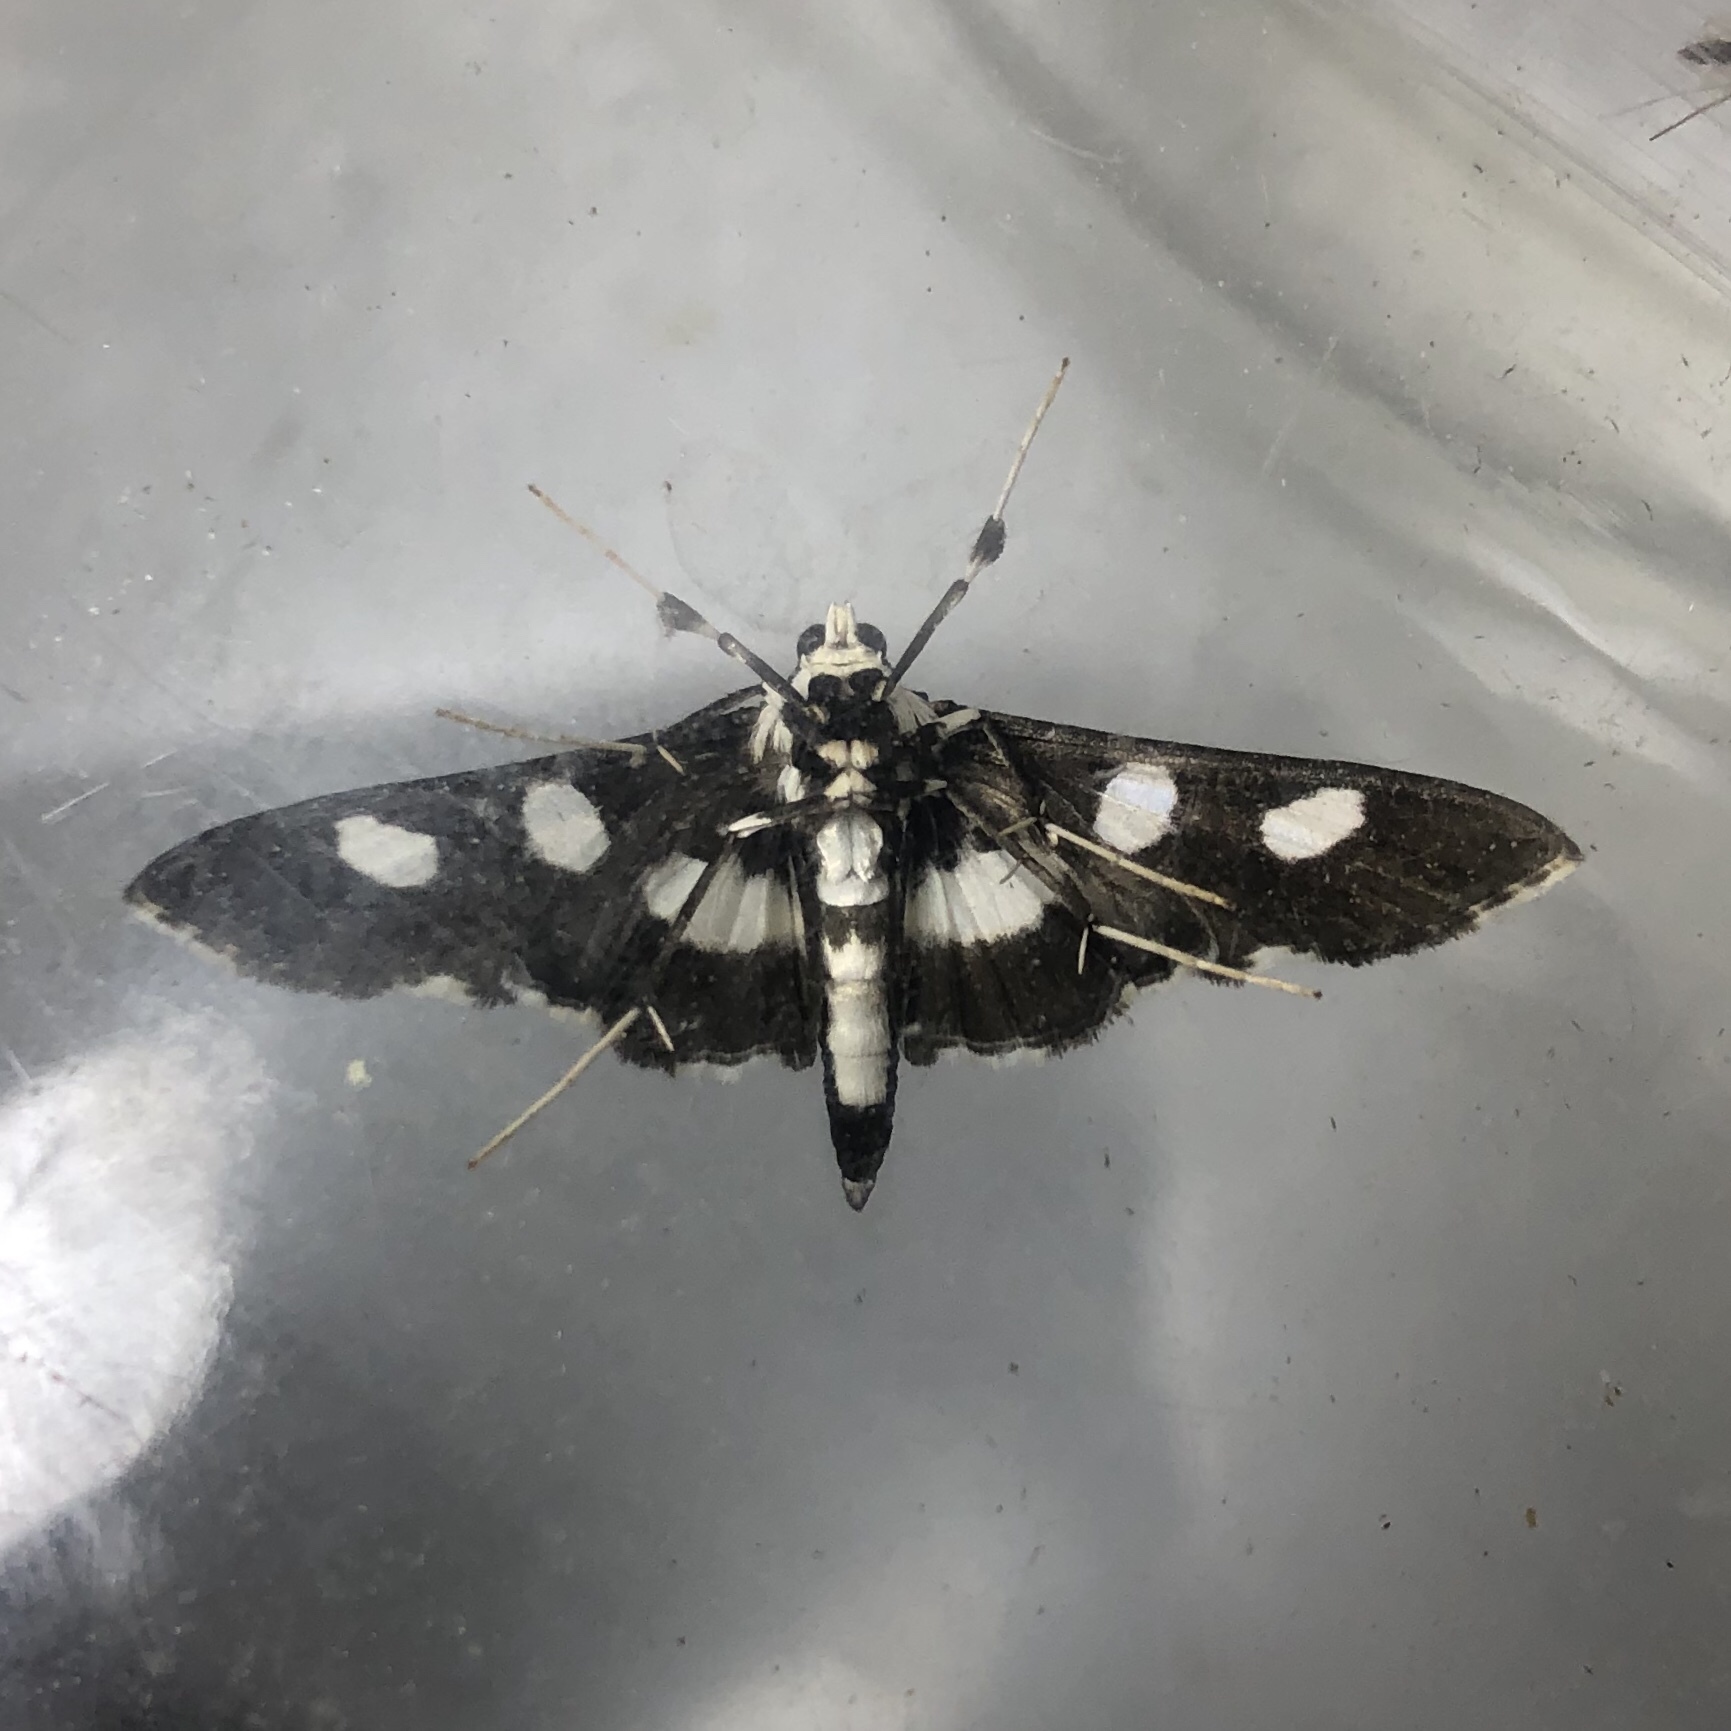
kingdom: Animalia
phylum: Arthropoda
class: Insecta
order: Lepidoptera
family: Crambidae
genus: Desmia
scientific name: Desmia funeralis
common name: Grape leaf folder moth
